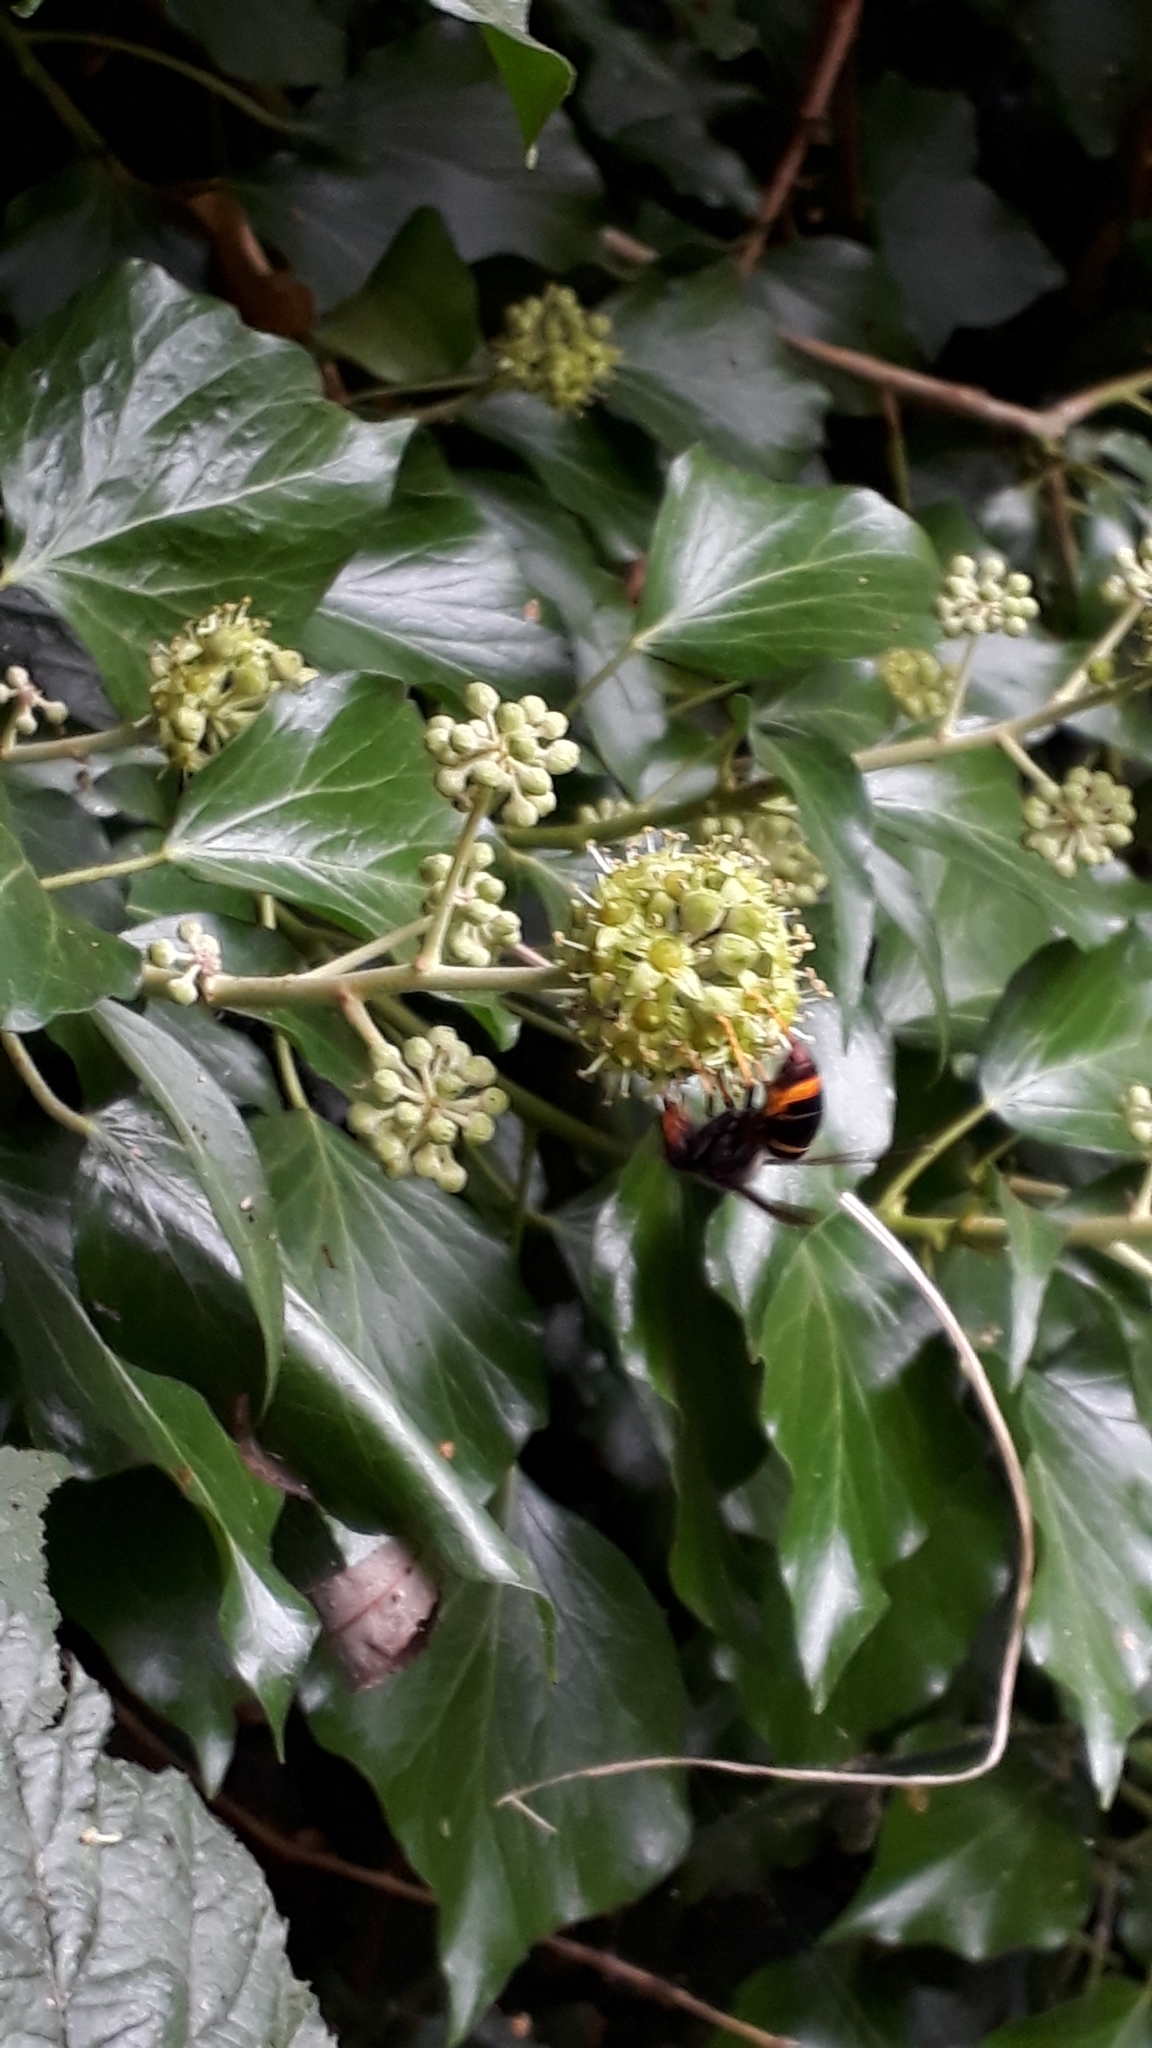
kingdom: Animalia
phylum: Arthropoda
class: Insecta
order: Hymenoptera
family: Vespidae
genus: Vespa
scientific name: Vespa velutina
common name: Asian hornet
